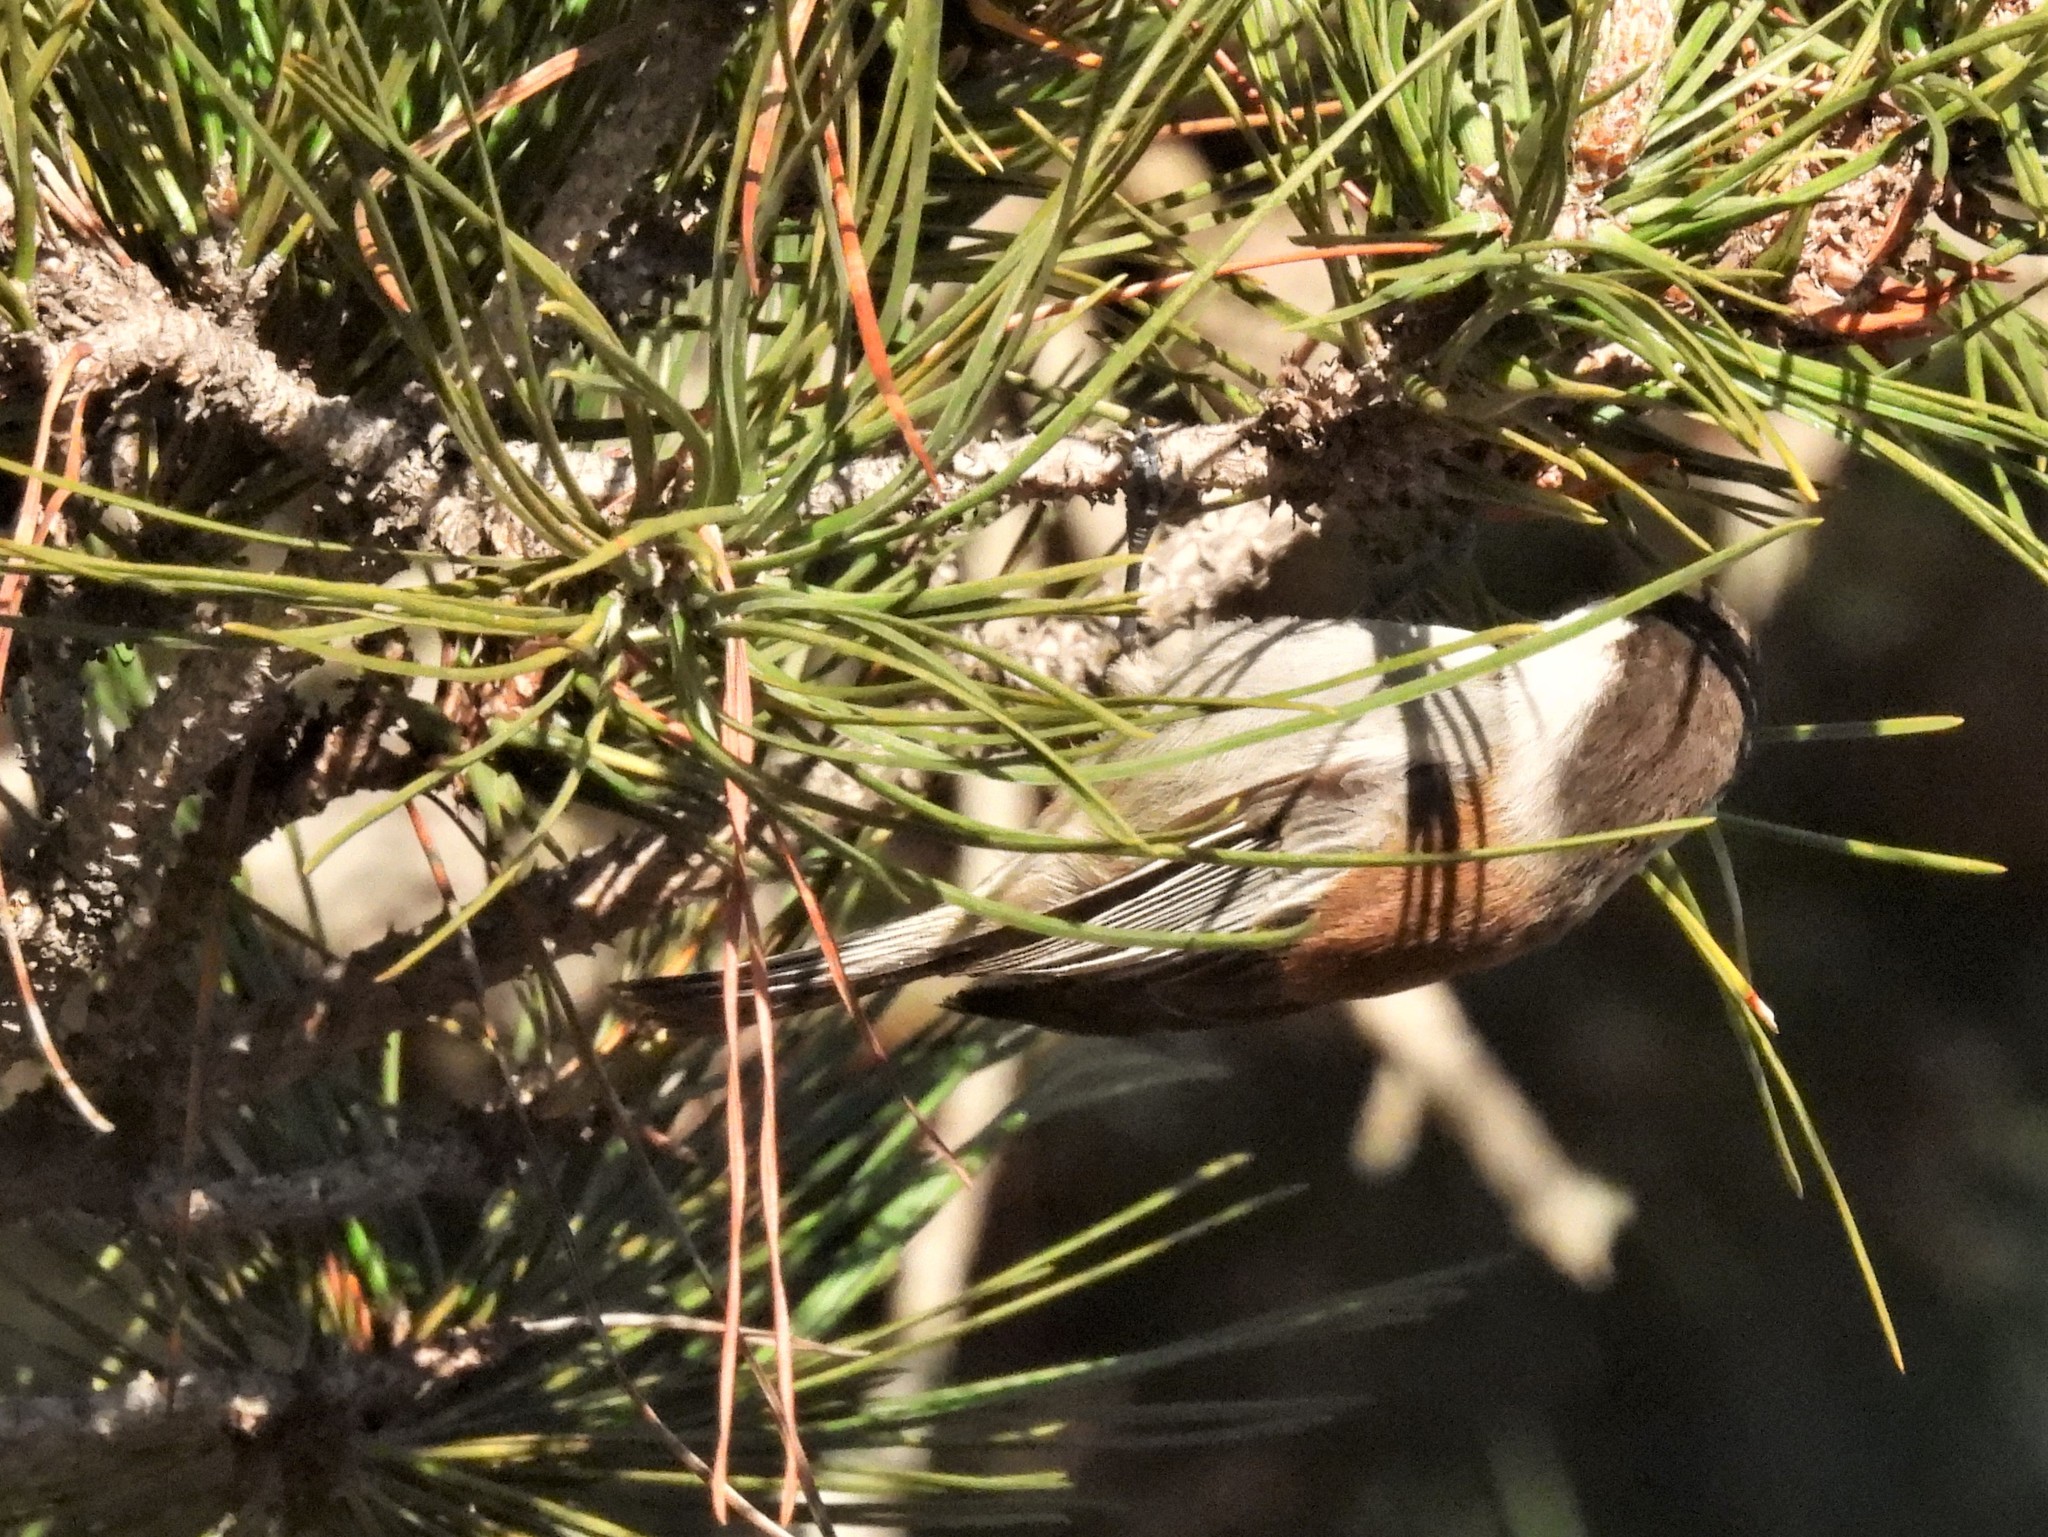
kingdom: Animalia
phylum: Chordata
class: Aves
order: Passeriformes
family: Paridae
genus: Poecile
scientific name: Poecile rufescens
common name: Chestnut-backed chickadee
